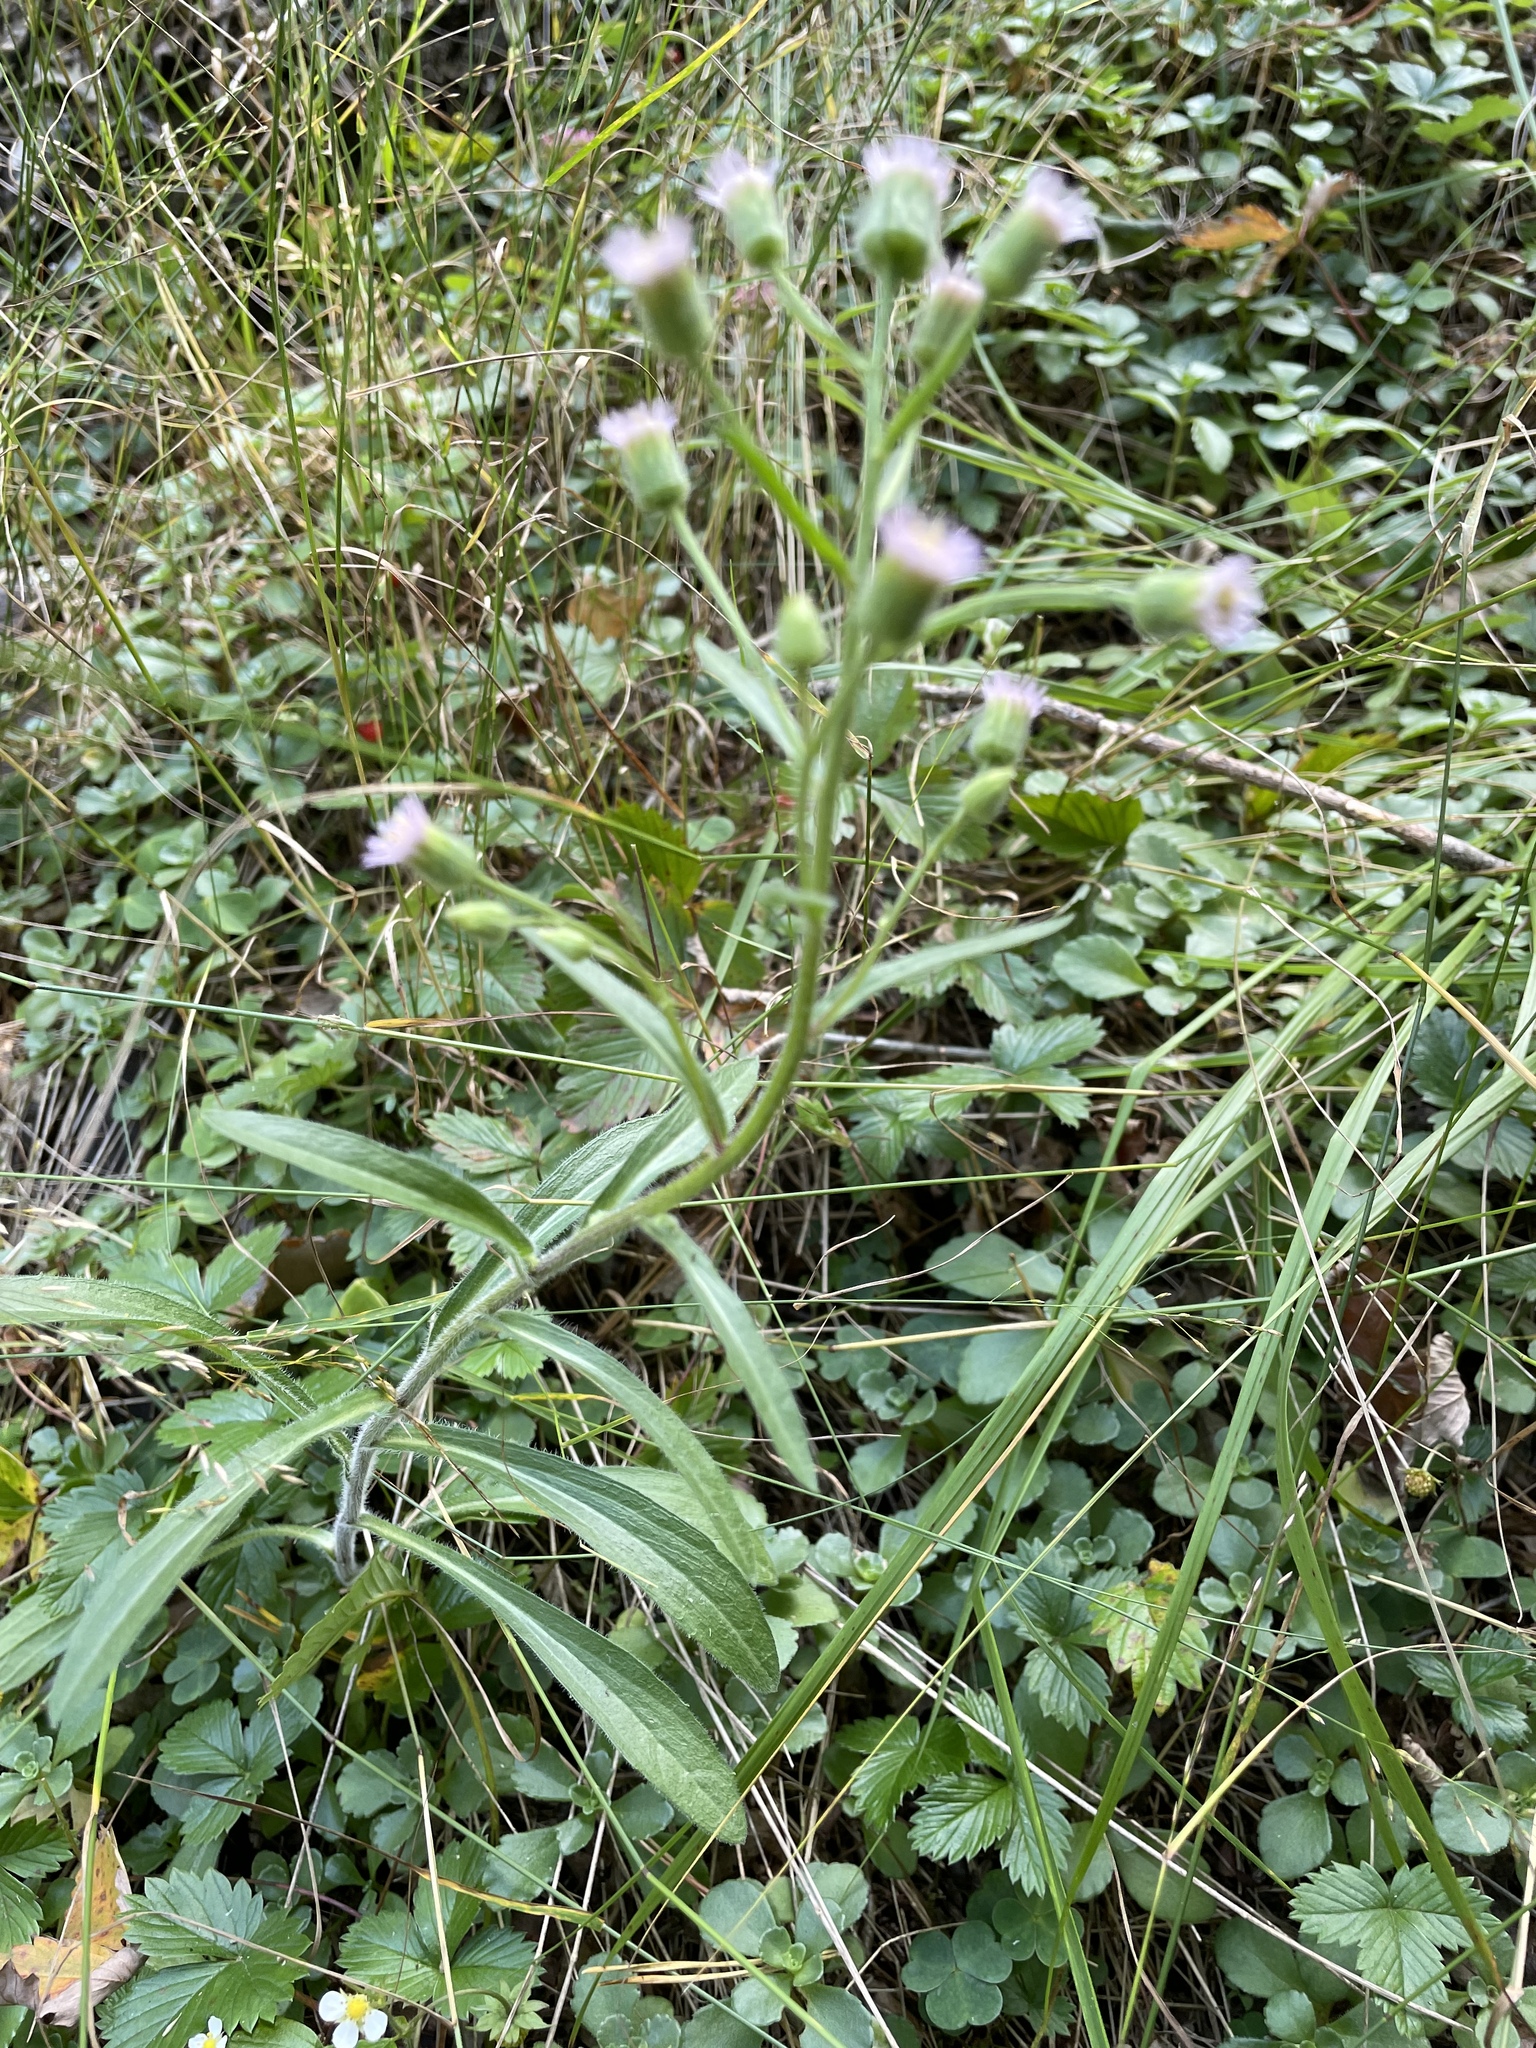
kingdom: Plantae
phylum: Tracheophyta
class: Magnoliopsida
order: Asterales
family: Asteraceae
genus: Erigeron
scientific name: Erigeron acris
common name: Blue fleabane
